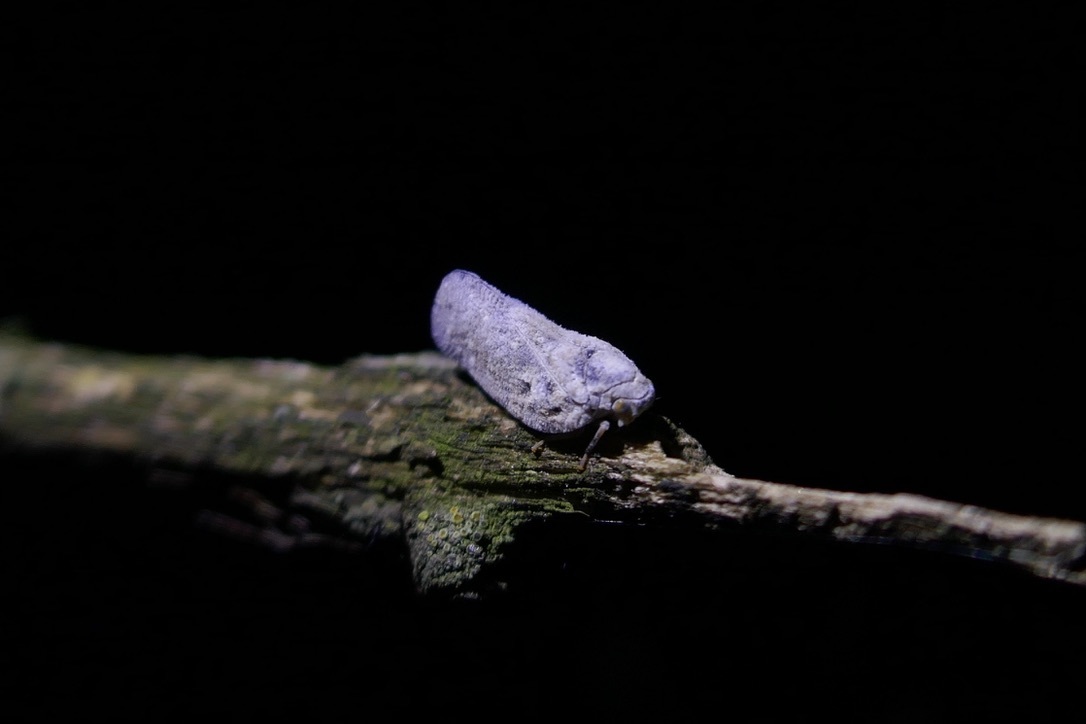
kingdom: Animalia
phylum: Arthropoda
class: Insecta
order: Hemiptera
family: Flatidae
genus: Metcalfa
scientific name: Metcalfa pruinosa
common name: Citrus flatid planthopper
